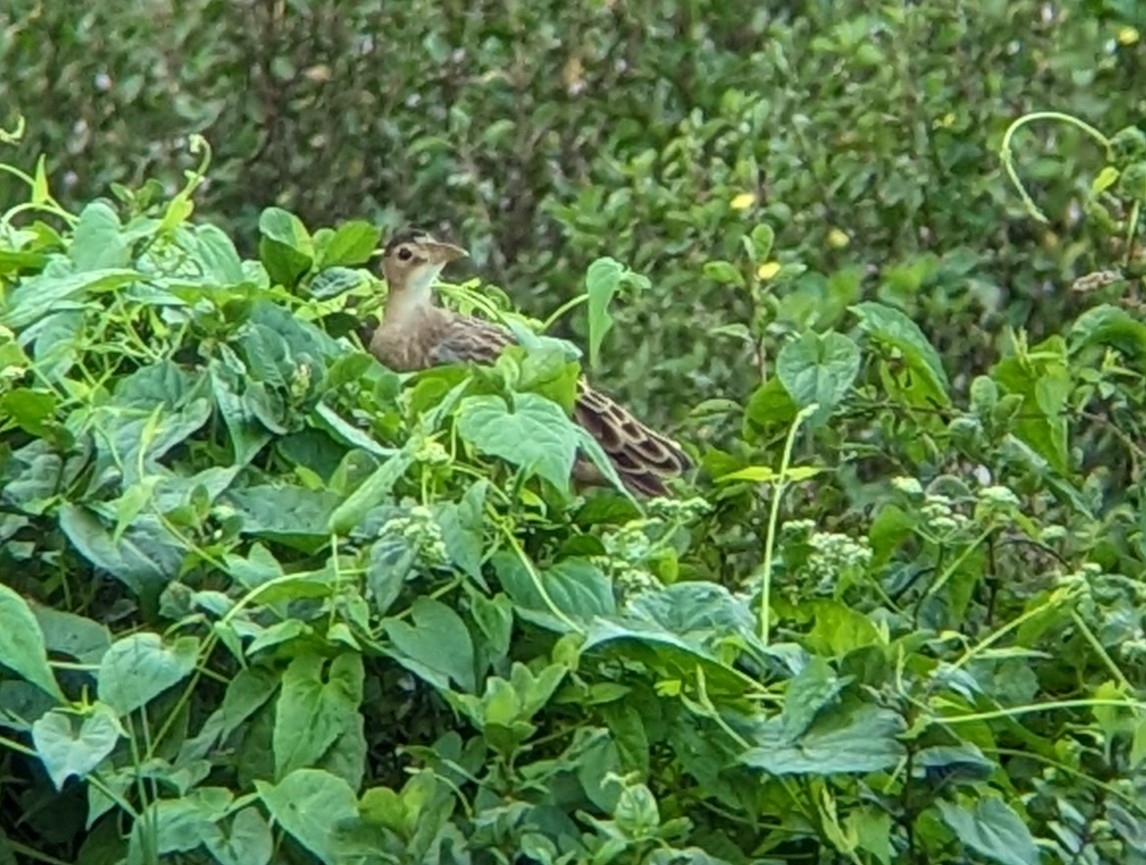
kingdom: Animalia
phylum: Chordata
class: Aves
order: Gruiformes
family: Rallidae
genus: Gallicrex
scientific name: Gallicrex cinerea
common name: Watercock
